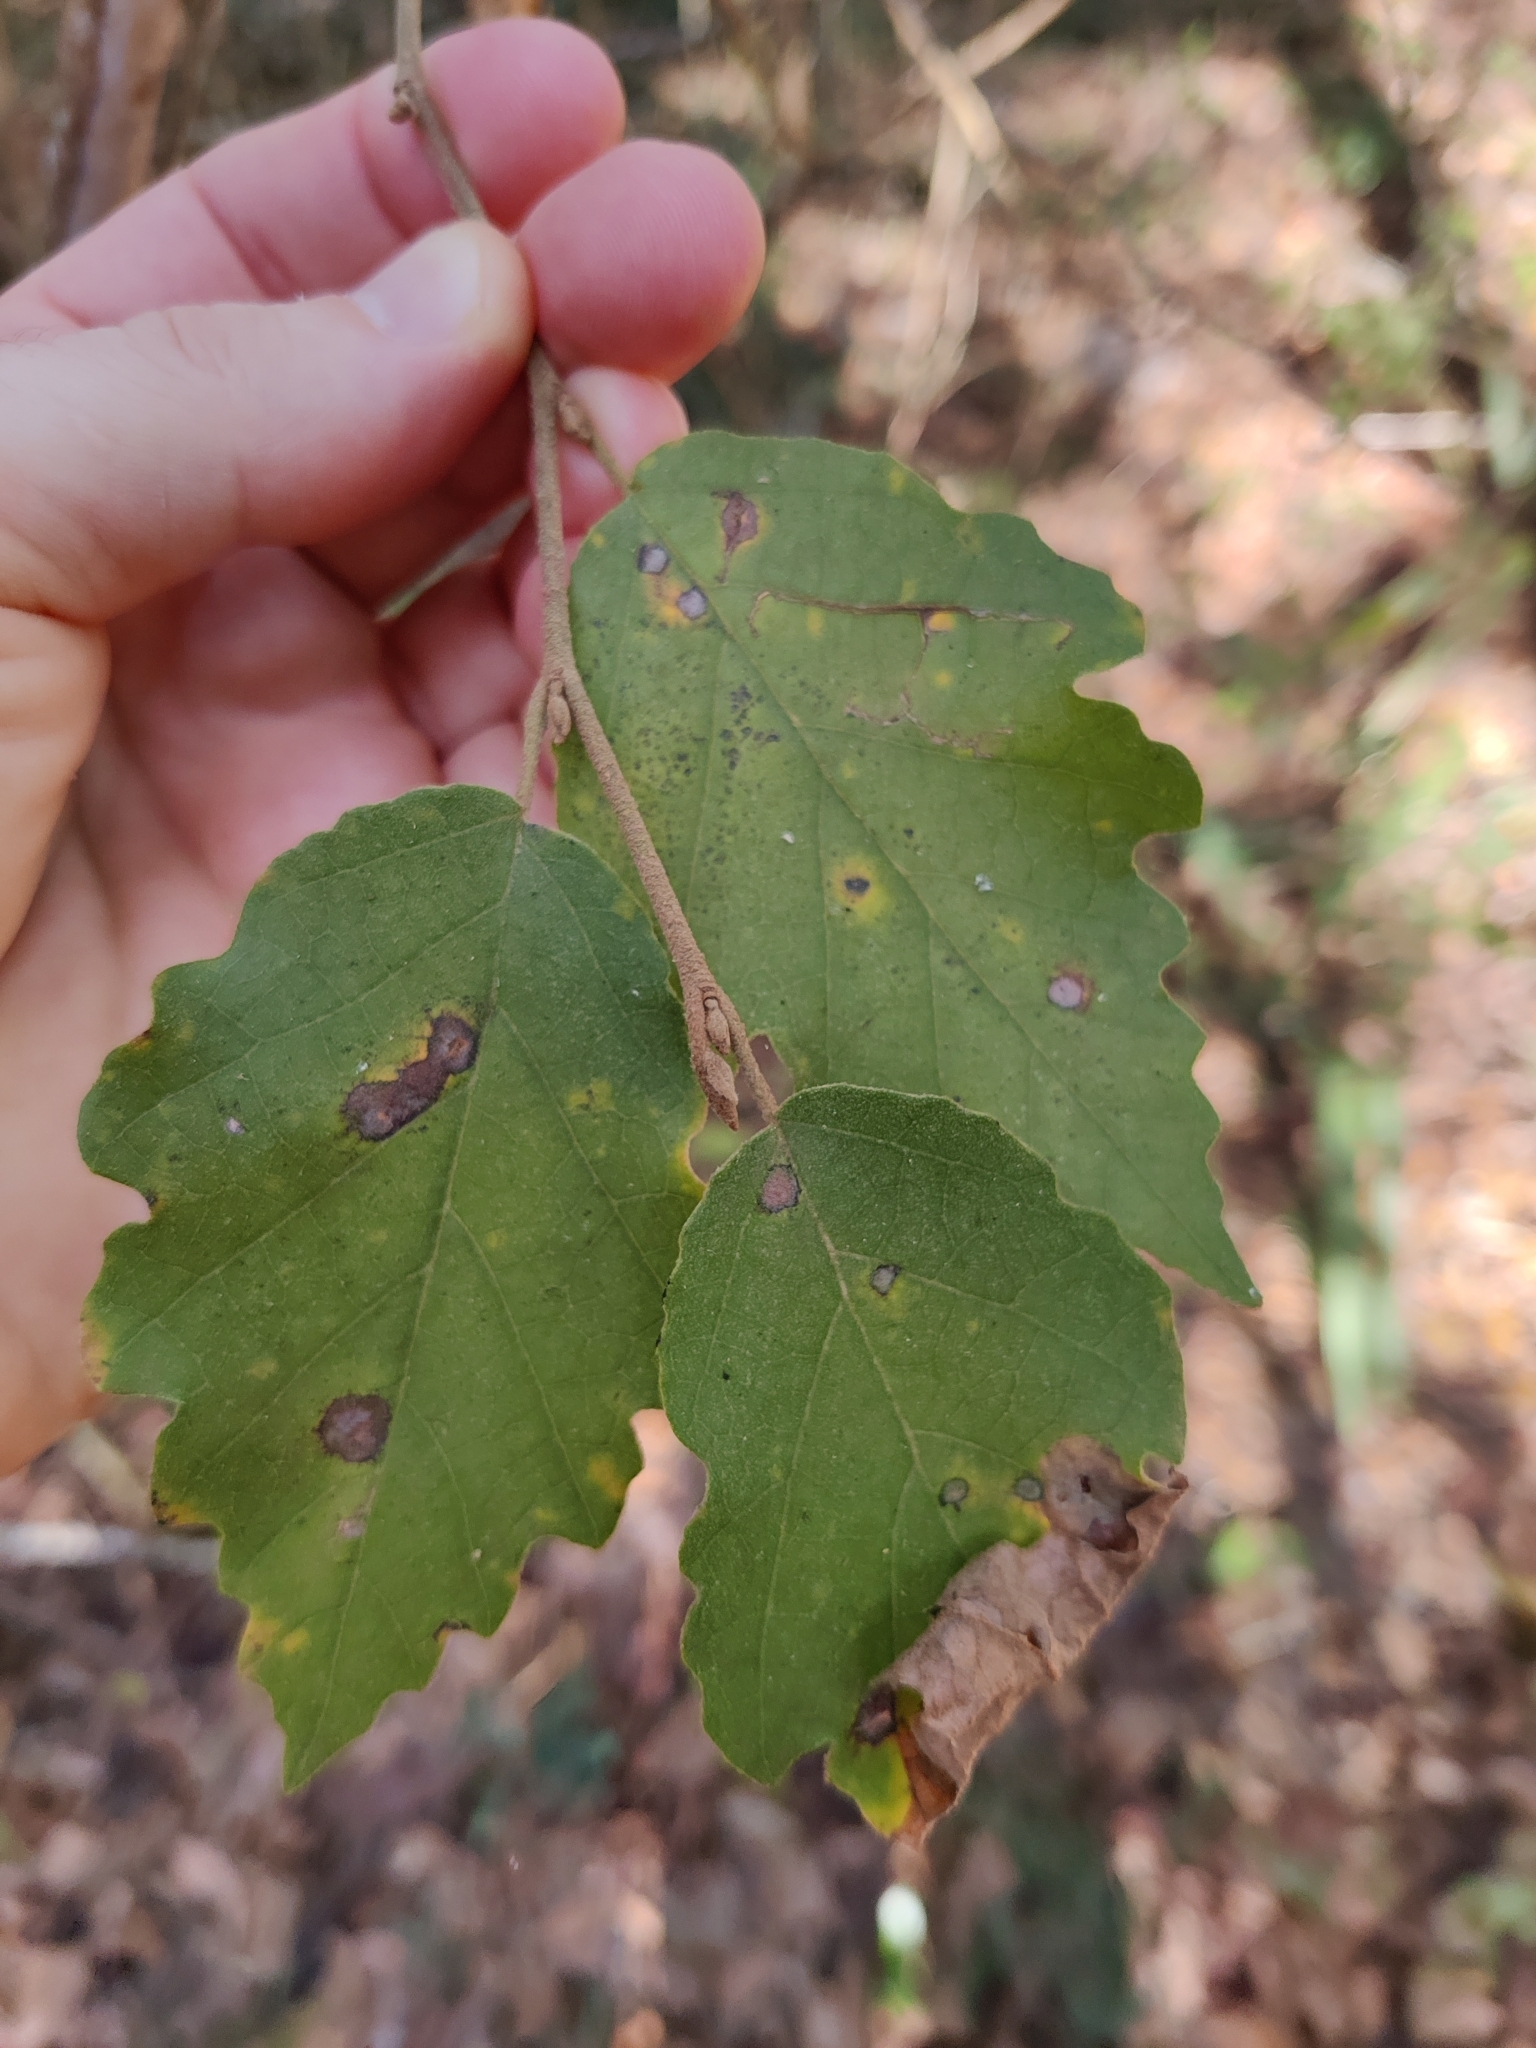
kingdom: Plantae
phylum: Tracheophyta
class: Magnoliopsida
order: Saxifragales
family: Hamamelidaceae
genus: Hamamelis
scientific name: Hamamelis virginiana
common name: Witch-hazel
